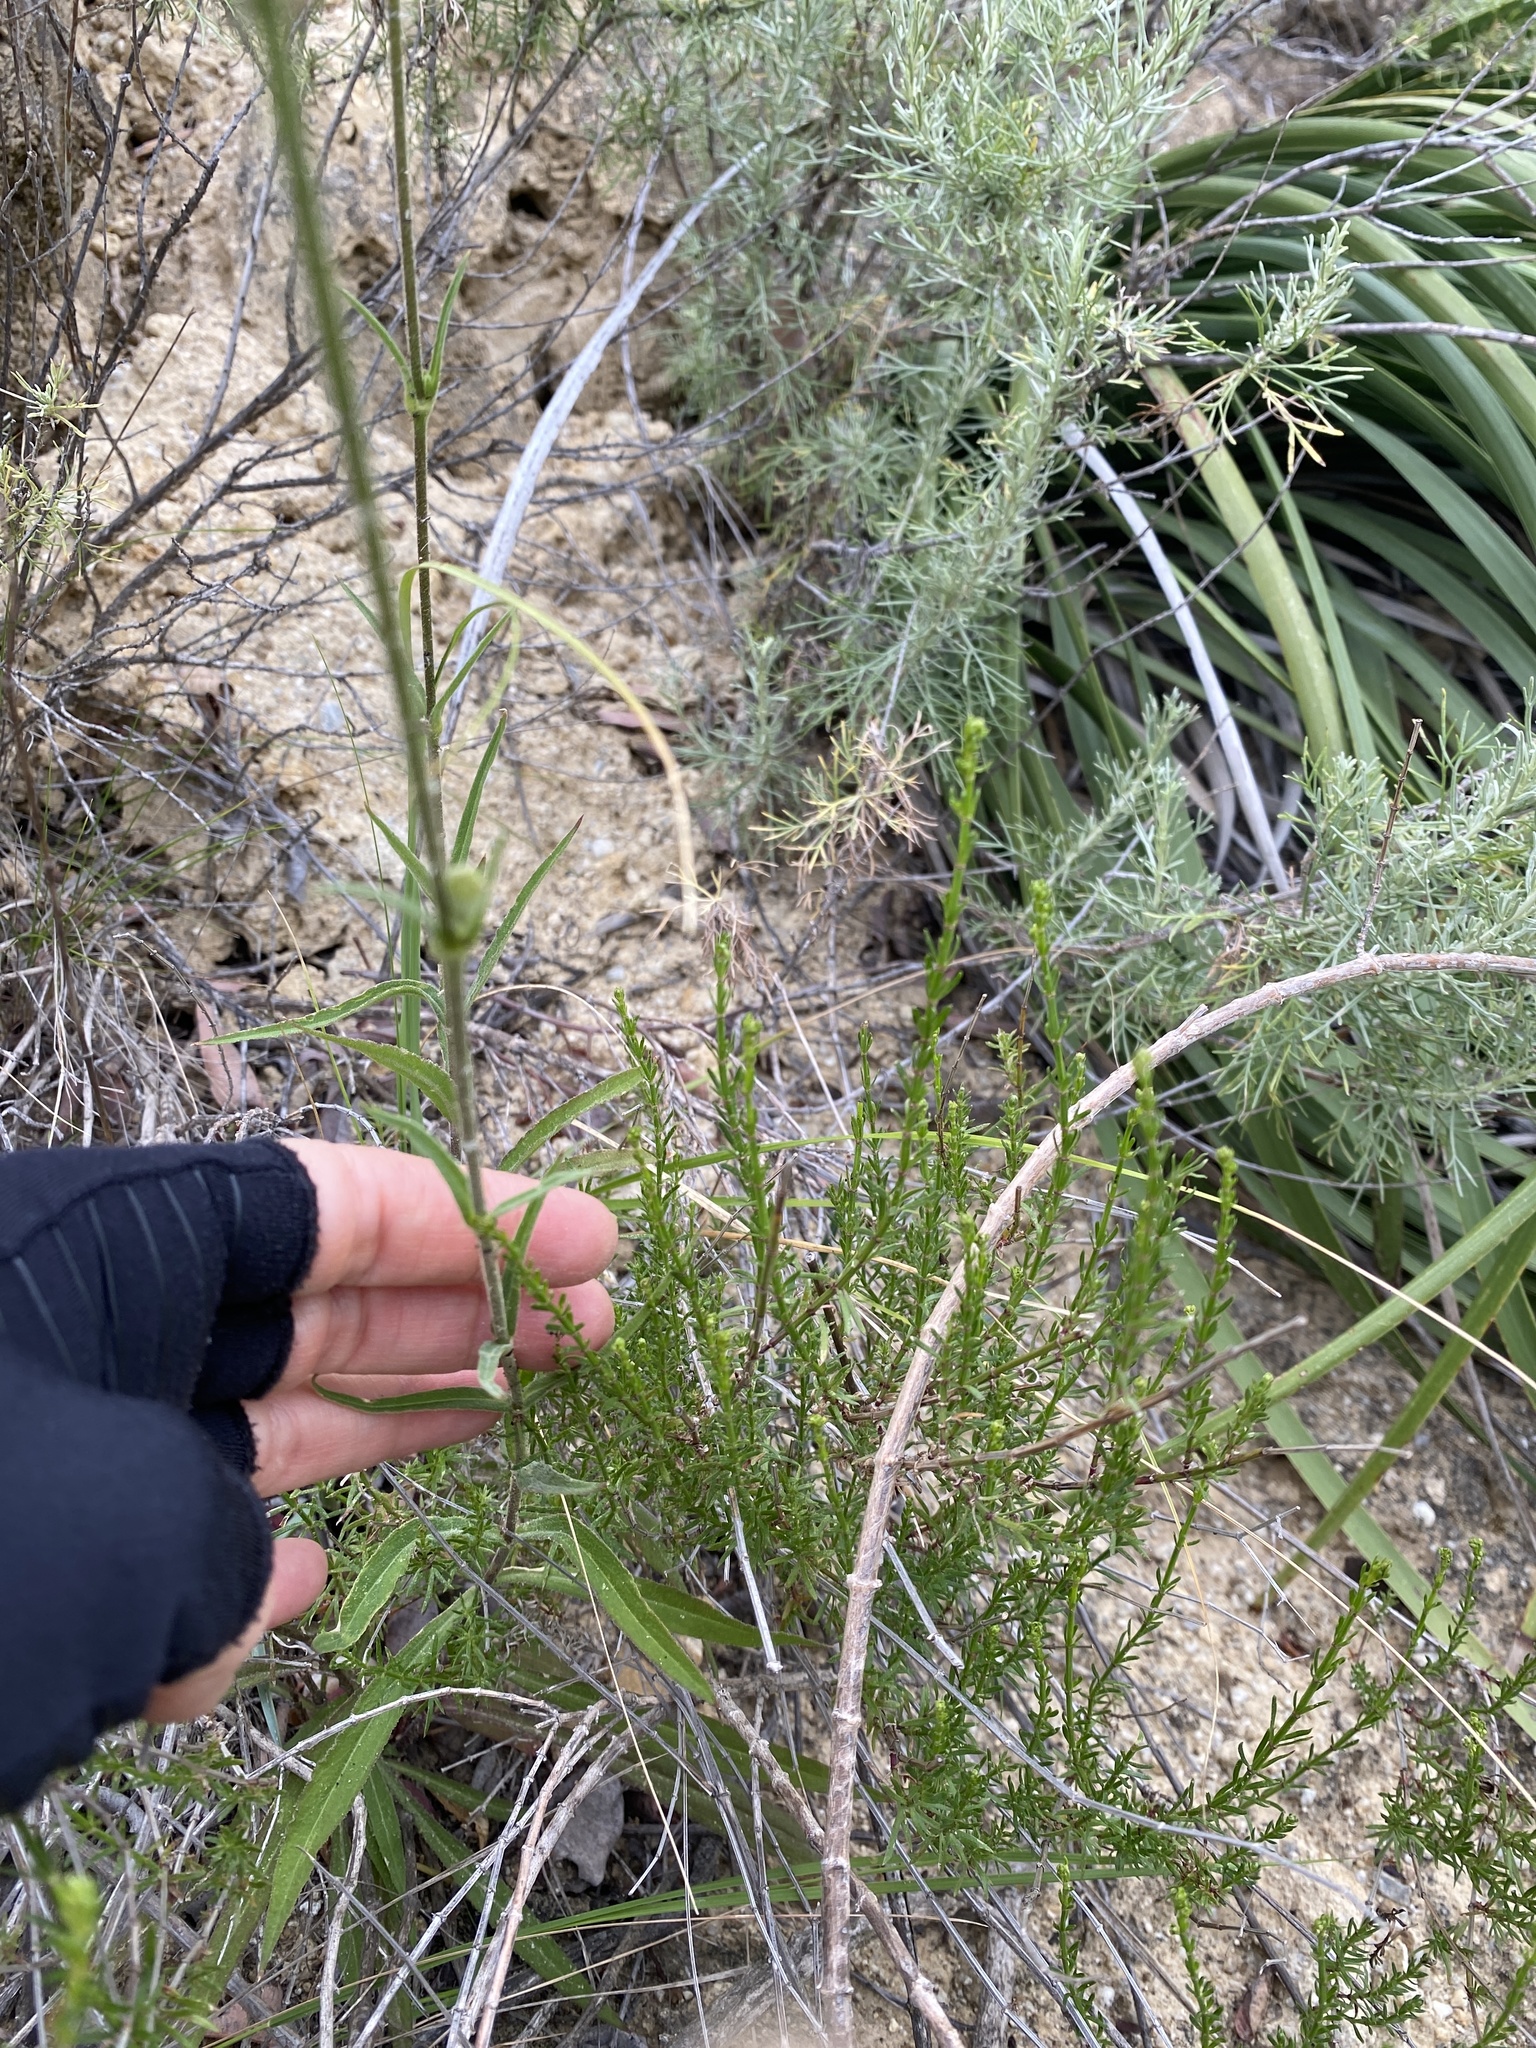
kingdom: Plantae
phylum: Tracheophyta
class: Magnoliopsida
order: Caryophyllales
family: Caryophyllaceae
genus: Silene
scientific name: Silene laciniata
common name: Indian-pink
